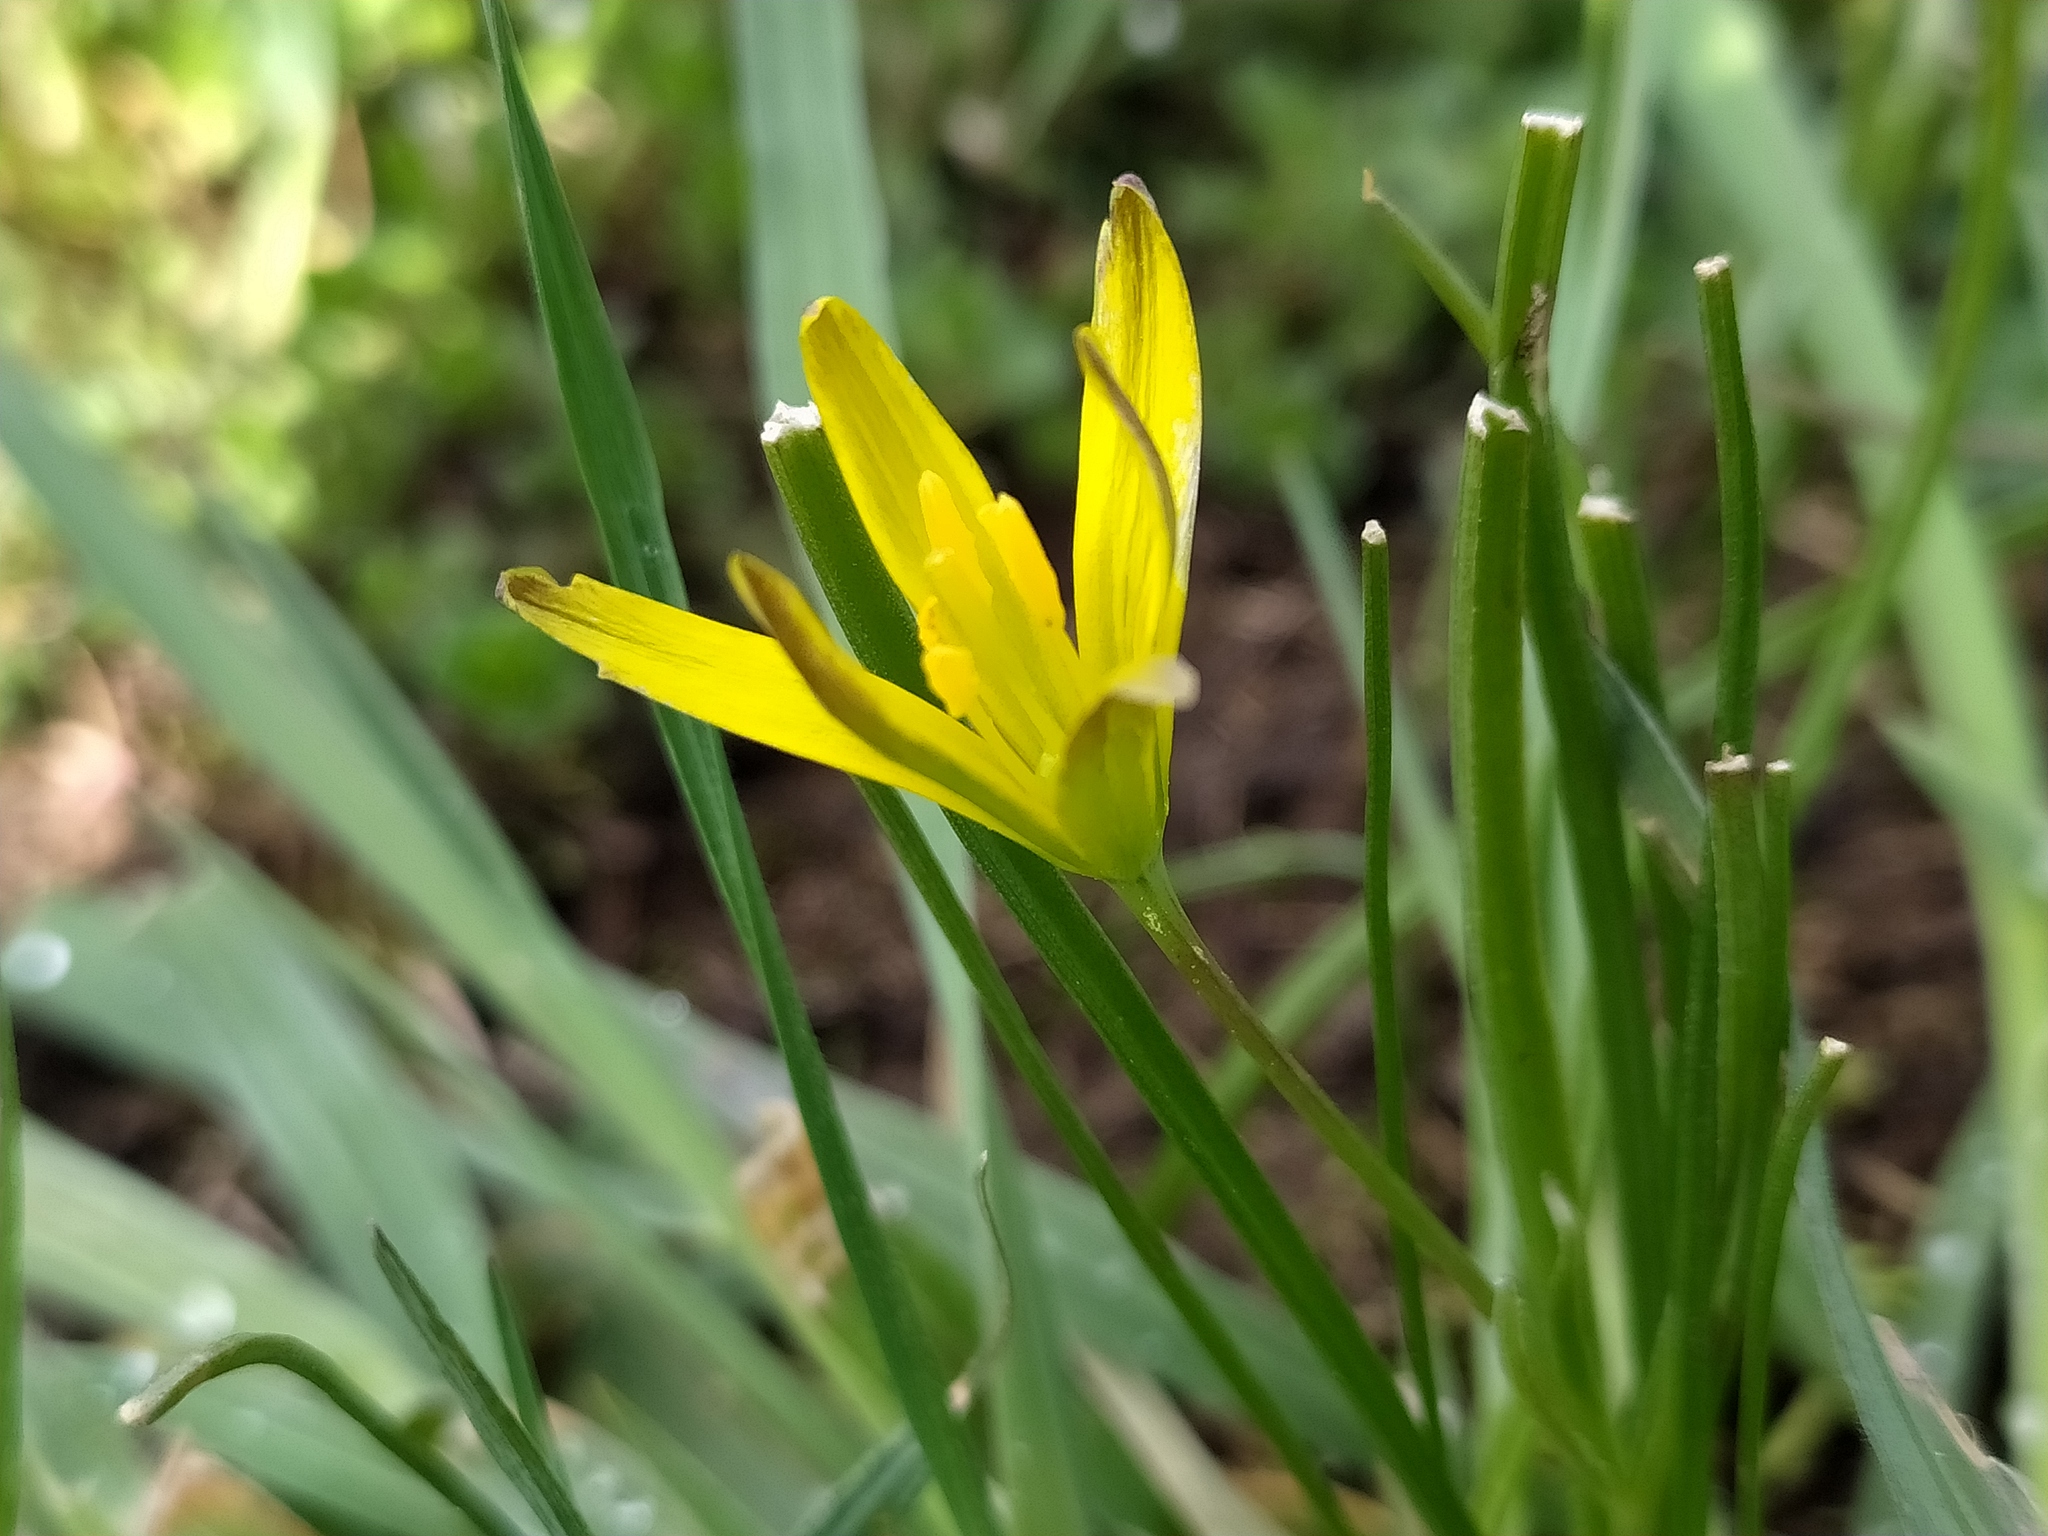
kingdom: Plantae
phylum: Tracheophyta
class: Liliopsida
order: Liliales
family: Liliaceae
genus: Gagea
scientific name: Gagea pratensis
